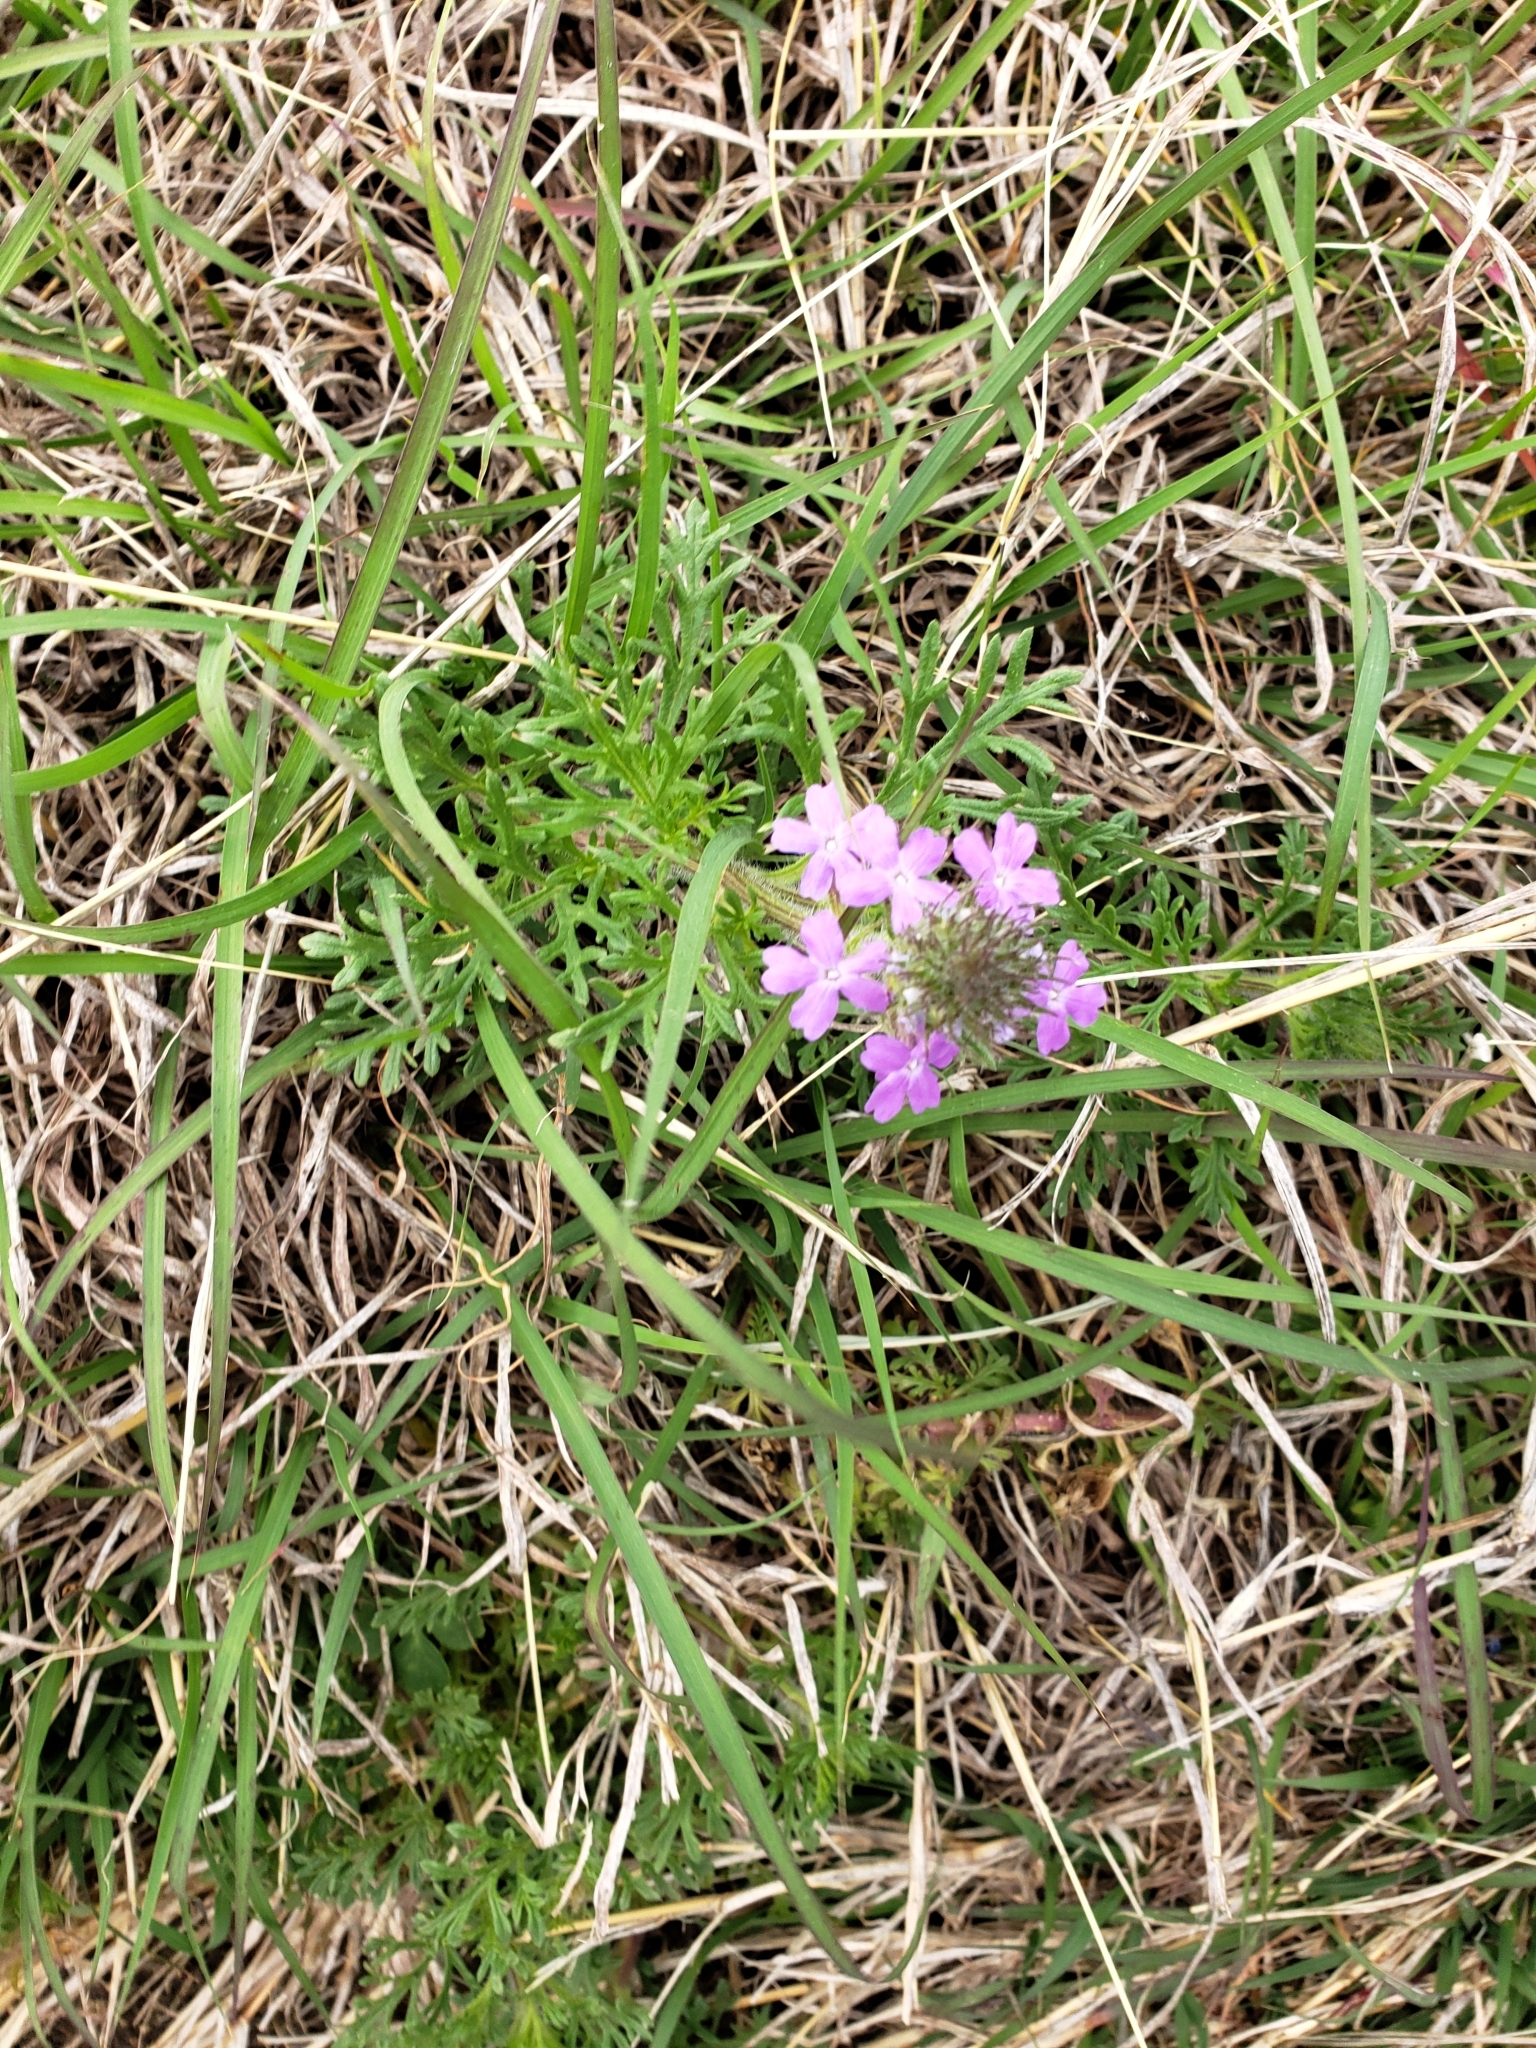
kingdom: Plantae
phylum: Tracheophyta
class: Magnoliopsida
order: Lamiales
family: Verbenaceae
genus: Verbena
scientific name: Verbena bipinnatifida
